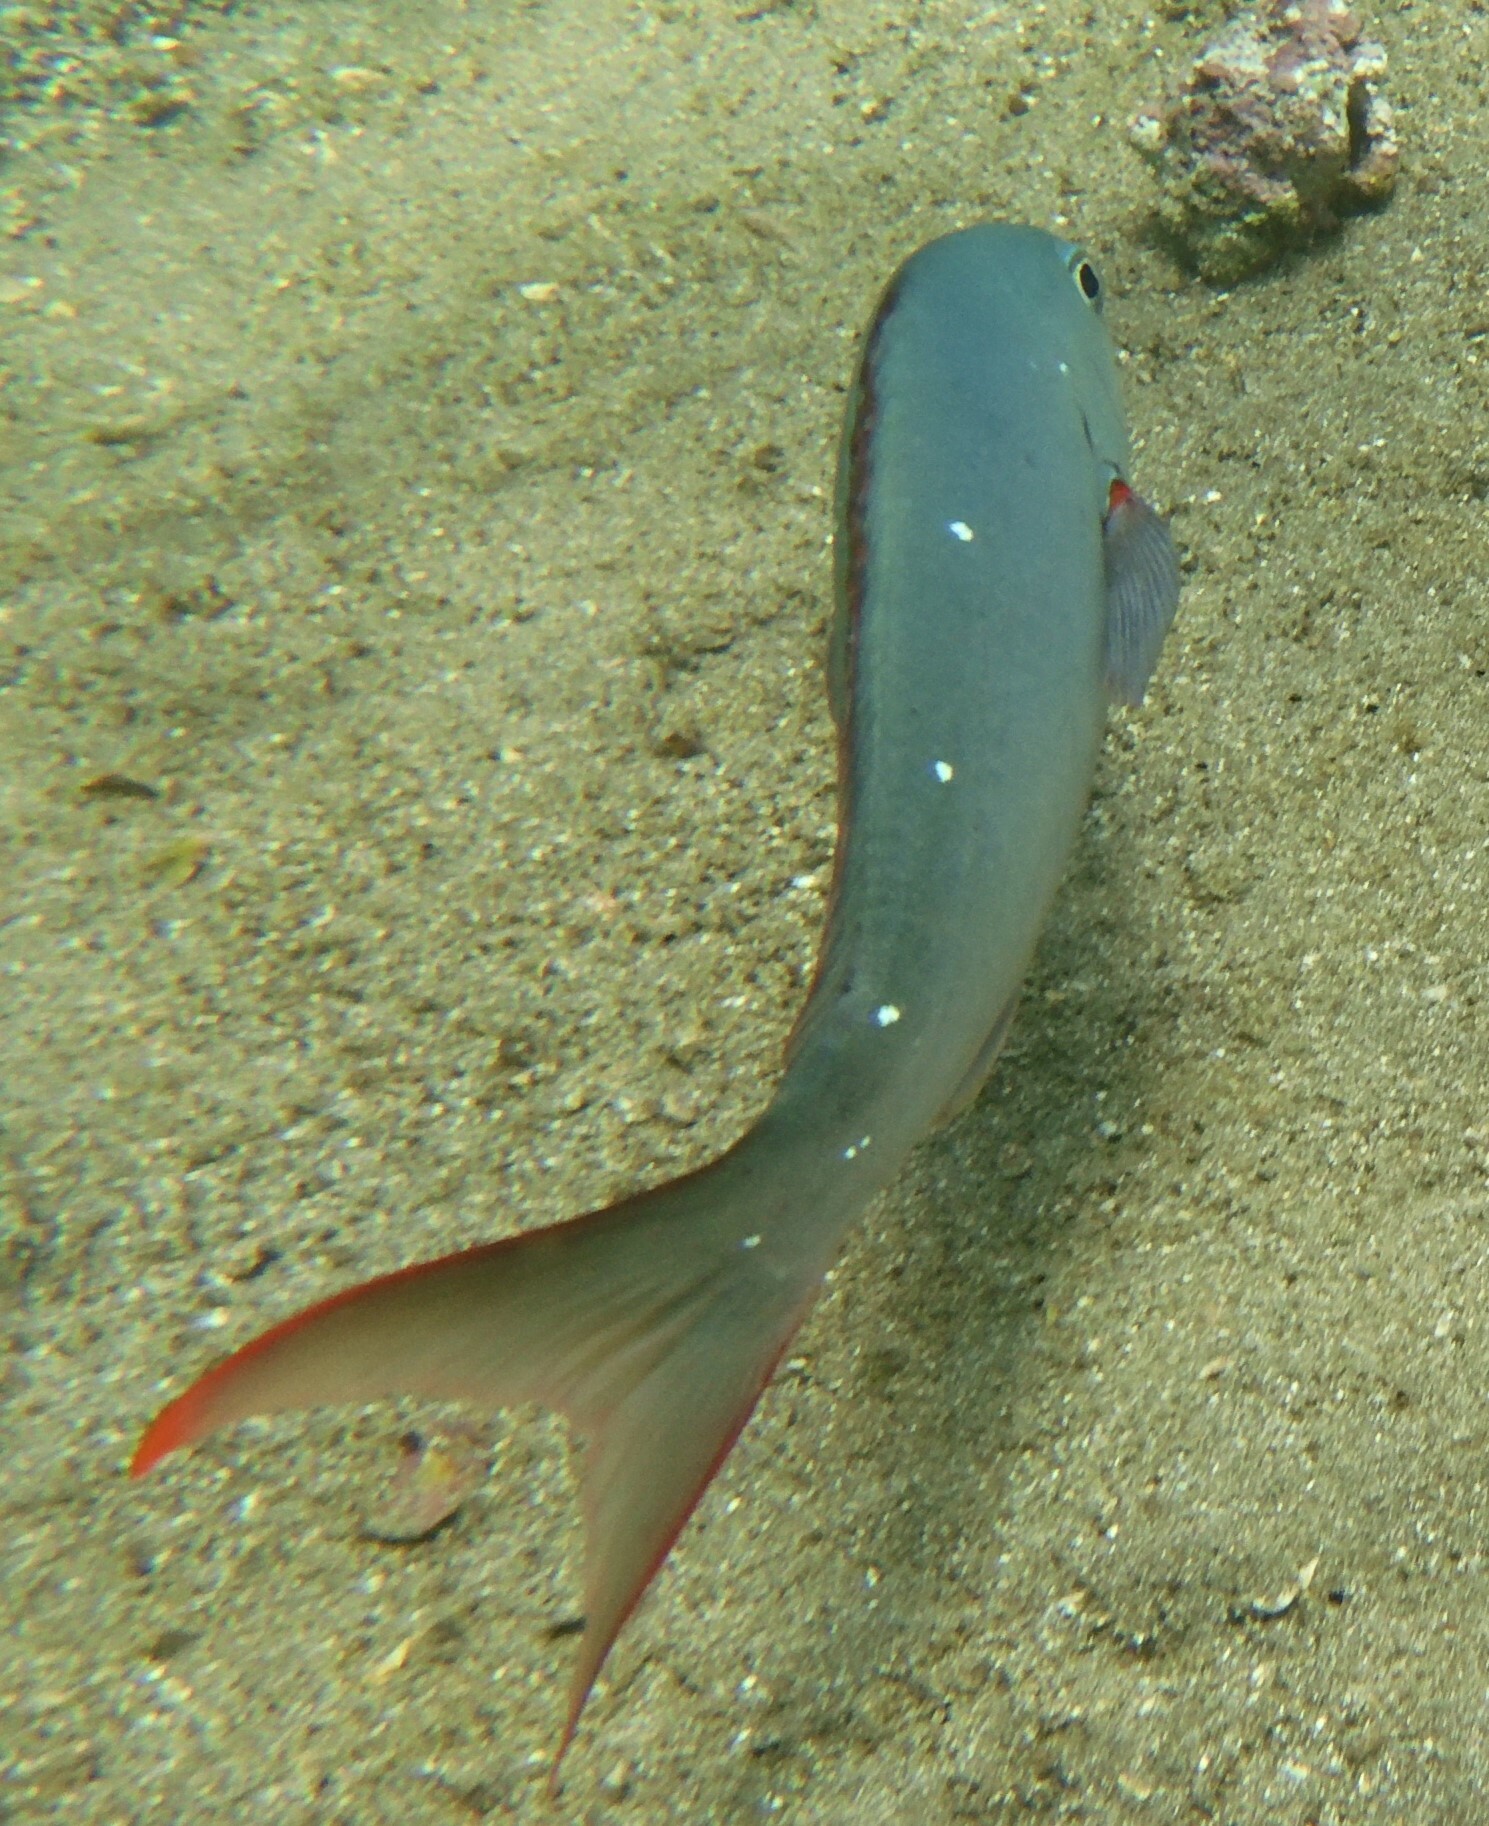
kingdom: Animalia
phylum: Chordata
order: Perciformes
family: Serranidae
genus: Paranthias
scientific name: Paranthias colonus
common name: Pacific creole-fish
